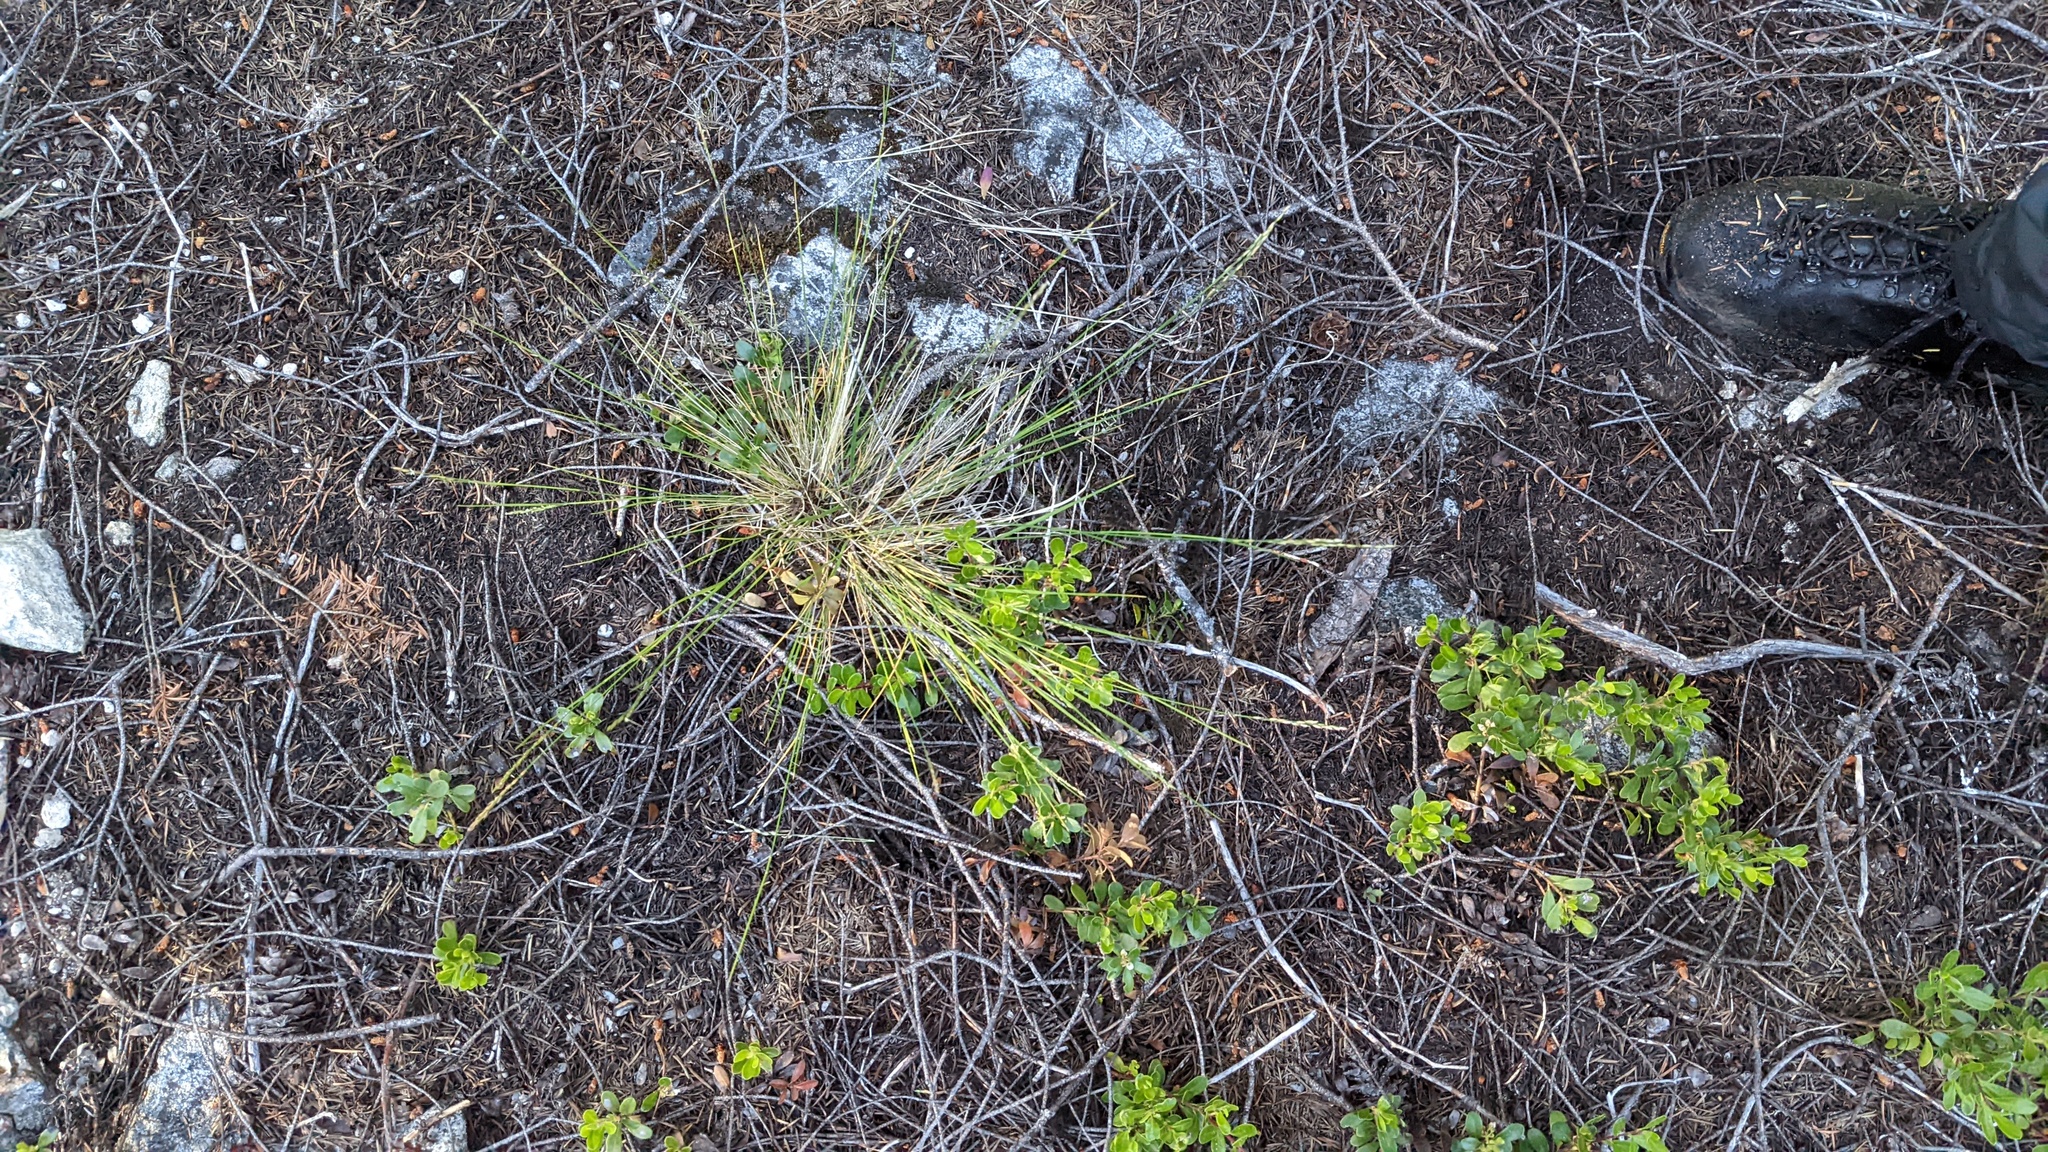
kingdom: Plantae
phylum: Tracheophyta
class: Liliopsida
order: Poales
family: Poaceae
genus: Piptatheropsis
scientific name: Piptatheropsis pungens
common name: Northern ricegrass
